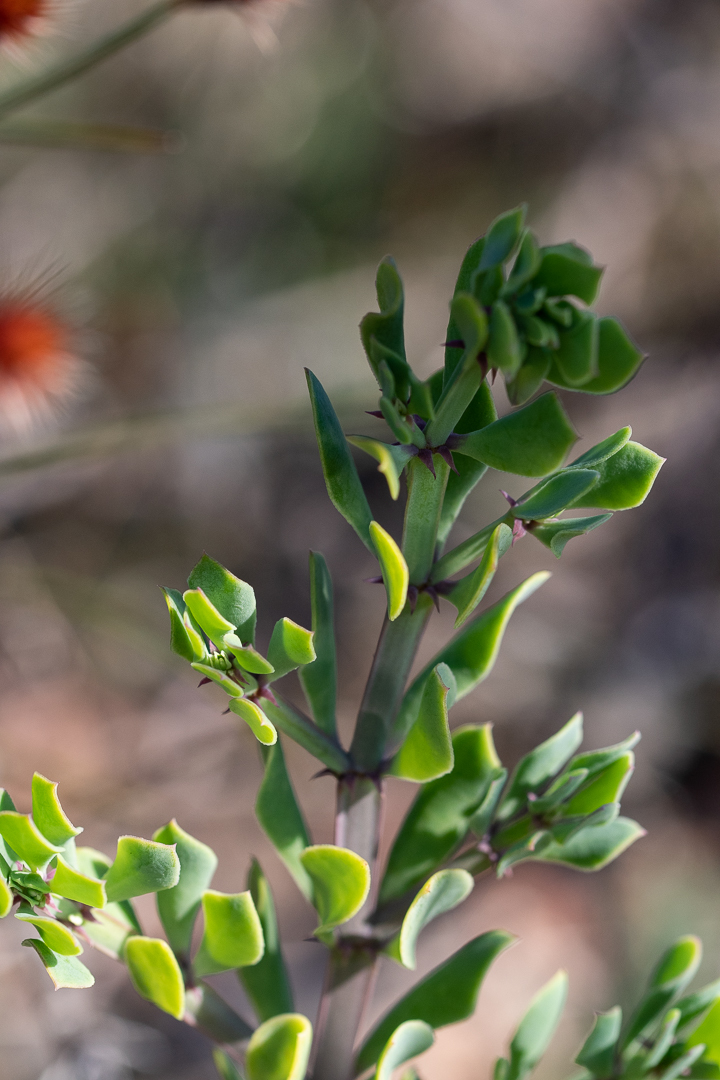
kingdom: Plantae
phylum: Tracheophyta
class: Magnoliopsida
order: Zygophyllales
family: Zygophyllaceae
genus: Roepera
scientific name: Roepera flexuosa
